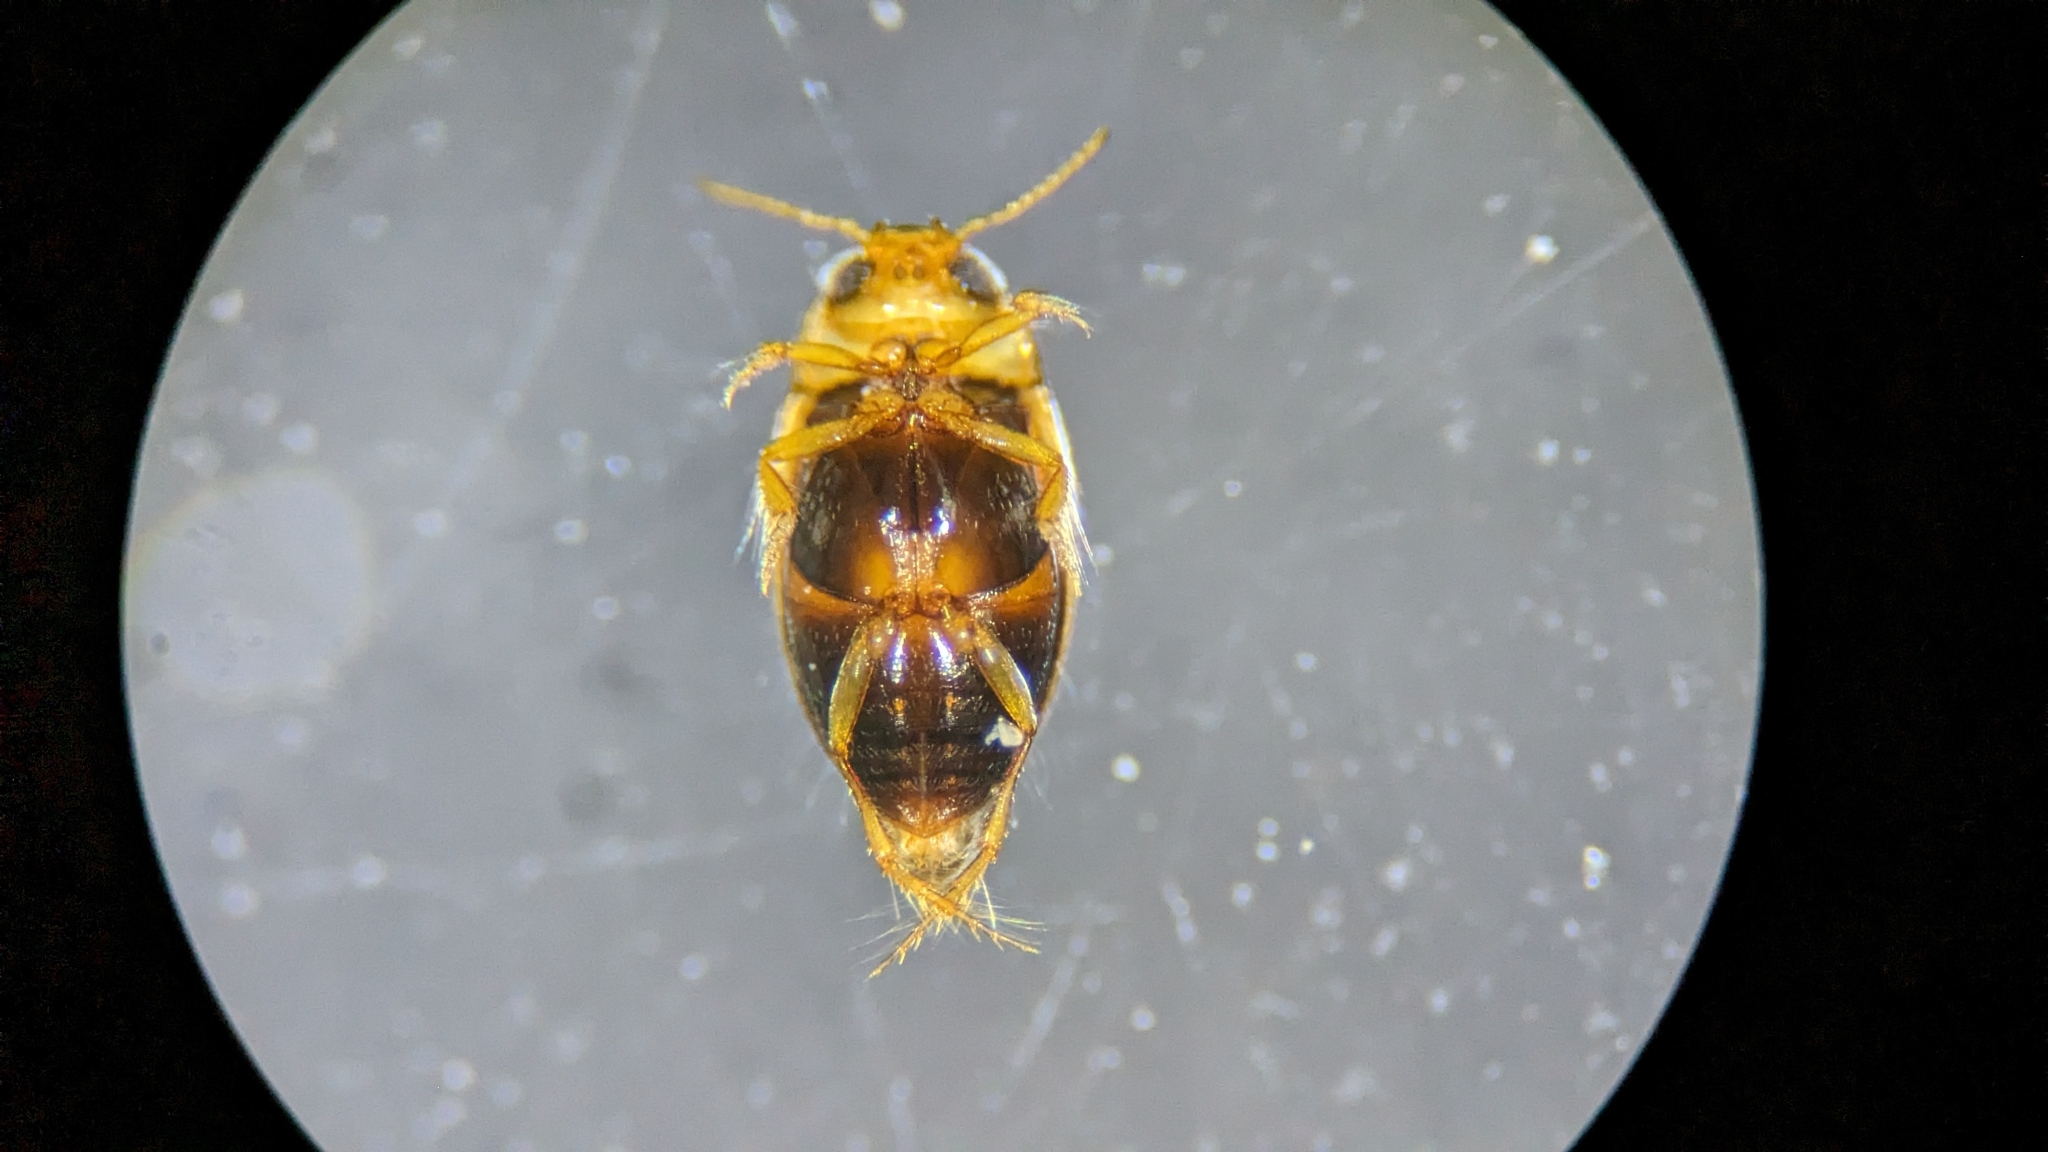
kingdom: Animalia
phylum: Arthropoda
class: Insecta
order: Coleoptera
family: Dytiscidae
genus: Uvarus
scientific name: Uvarus lacustris
